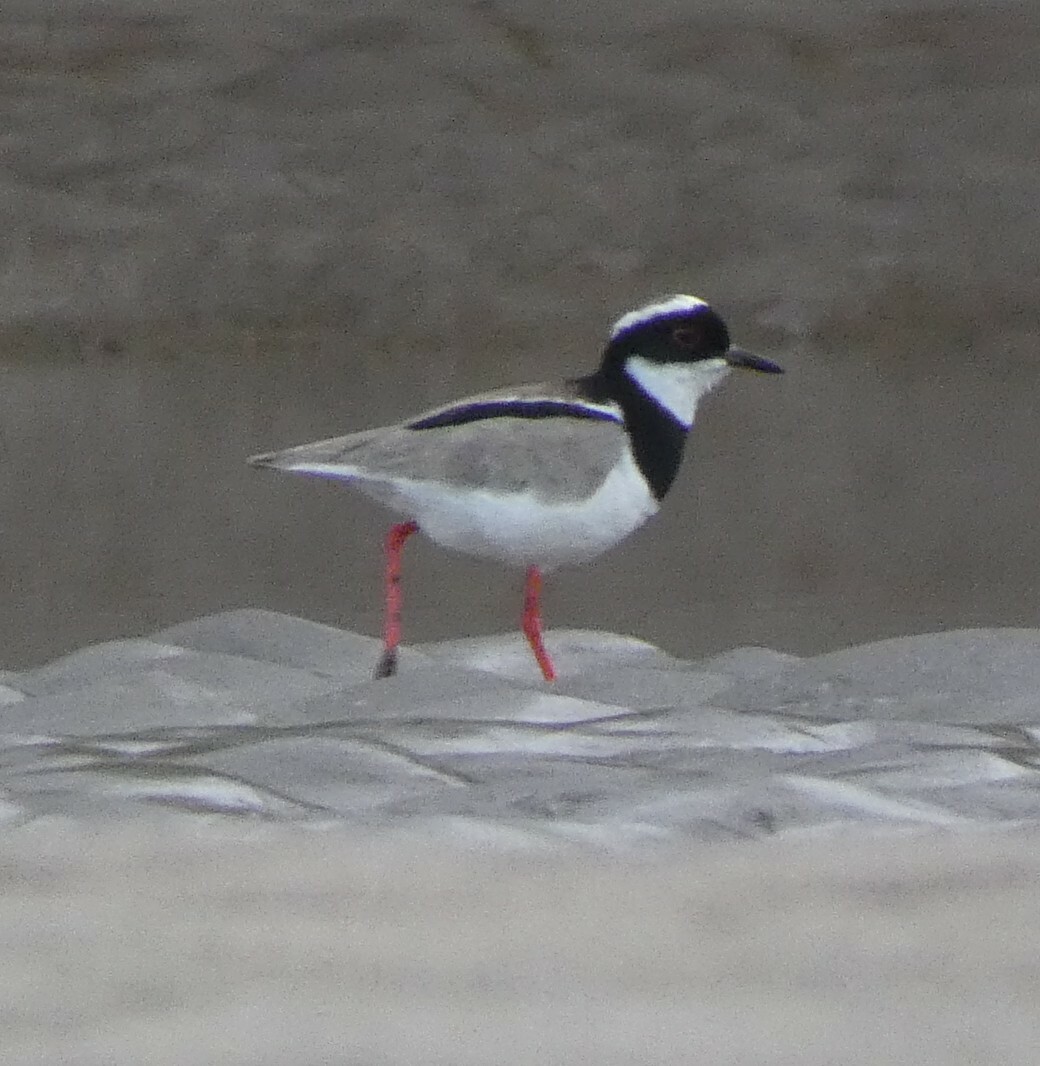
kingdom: Animalia
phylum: Chordata
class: Aves
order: Charadriiformes
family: Charadriidae
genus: Hoploxypterus
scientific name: Hoploxypterus cayanus
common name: Pied plover
